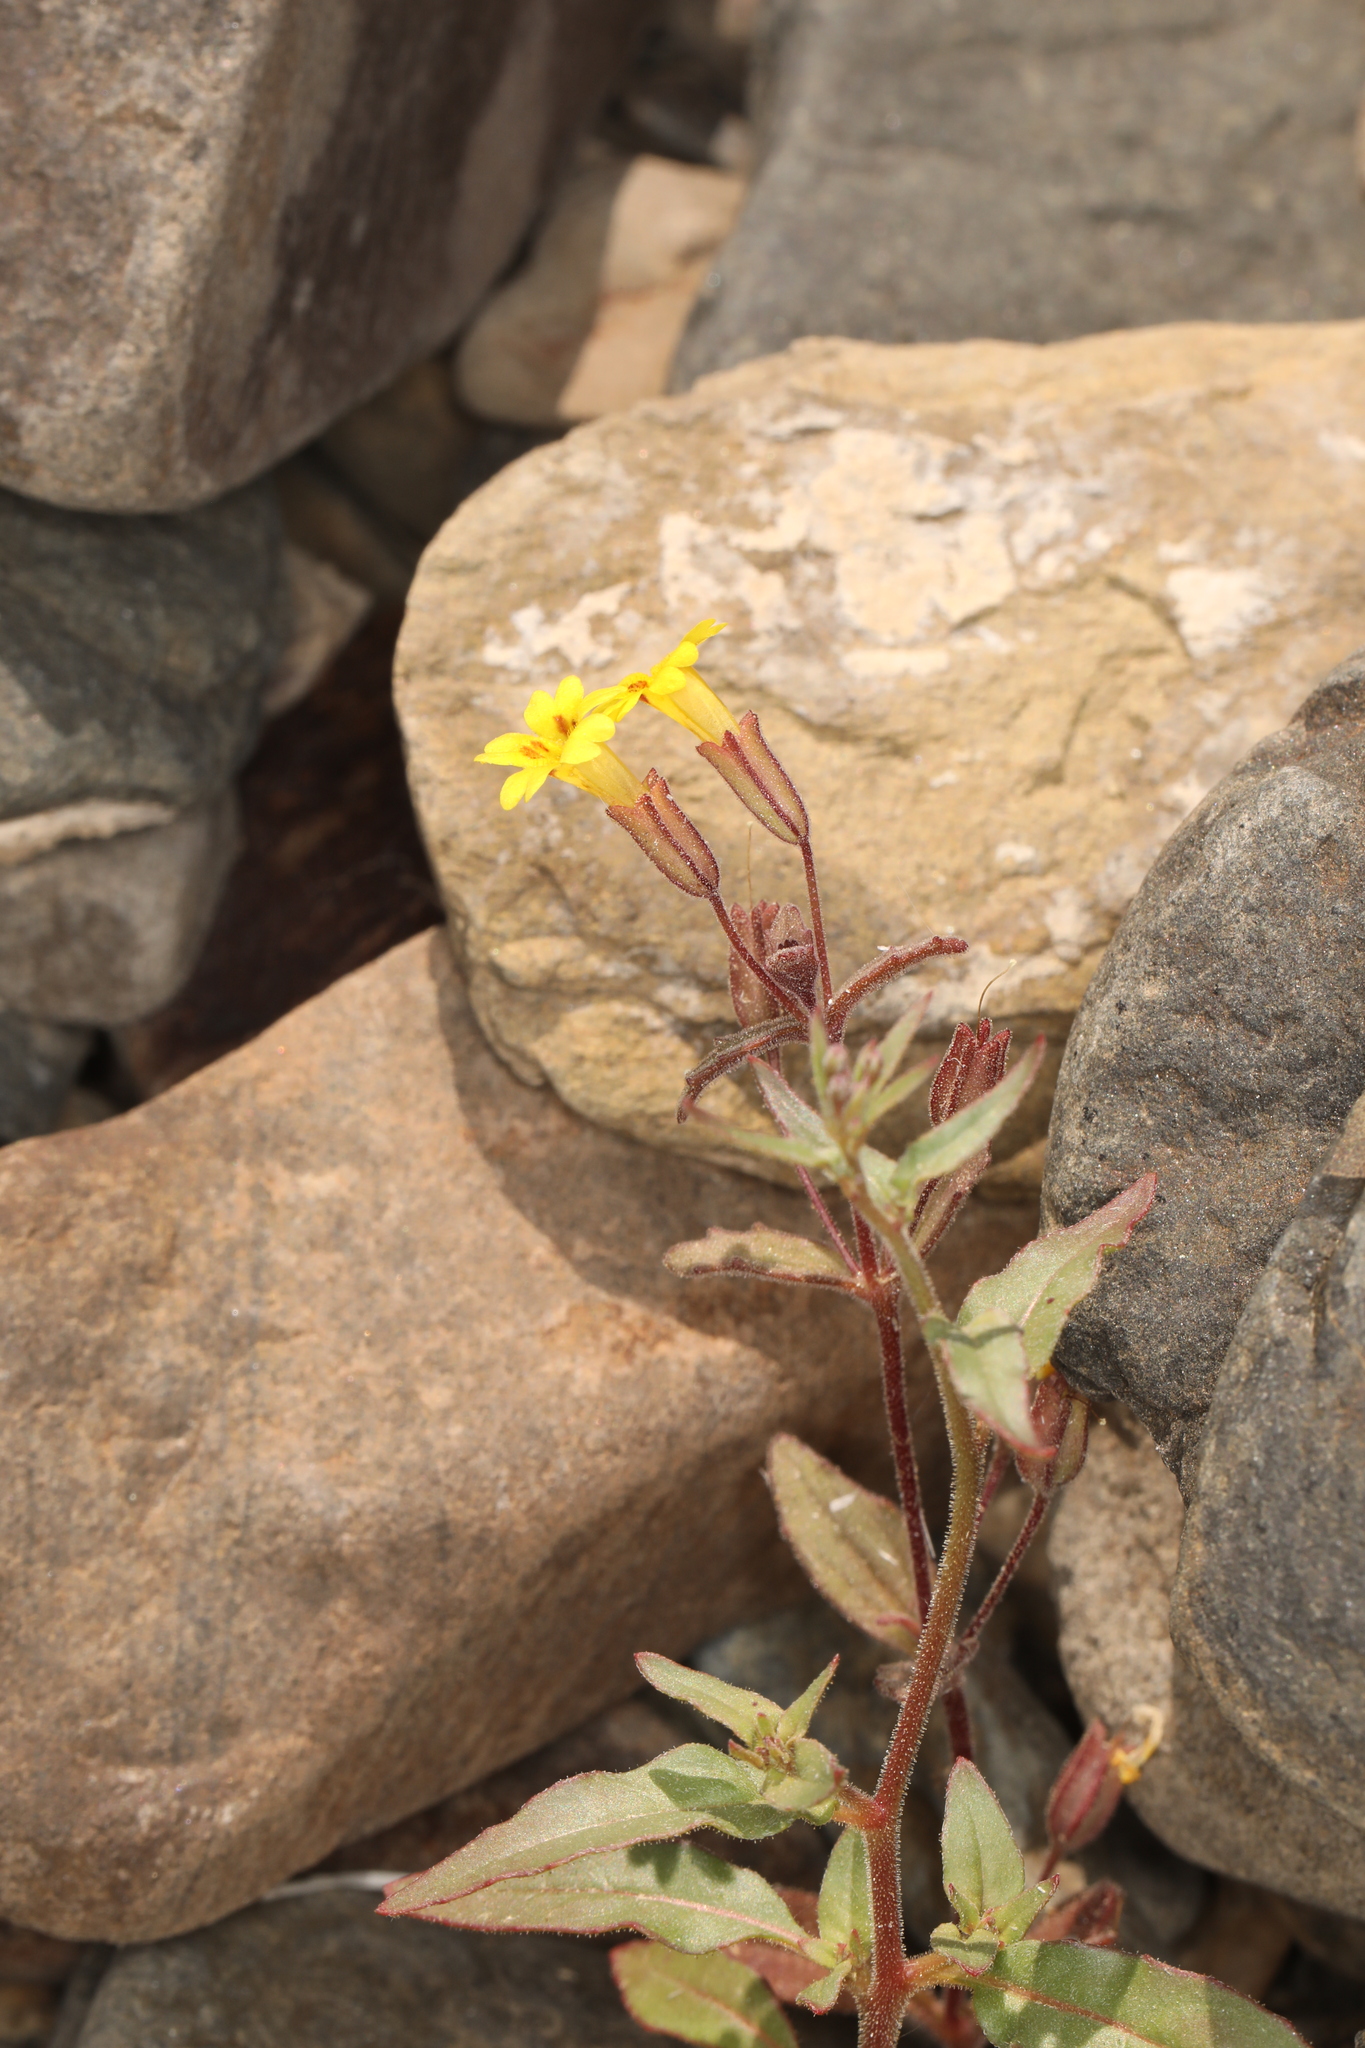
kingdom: Plantae
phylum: Tracheophyta
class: Magnoliopsida
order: Lamiales
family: Phrymaceae
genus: Erythranthe
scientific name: Erythranthe calcicola
